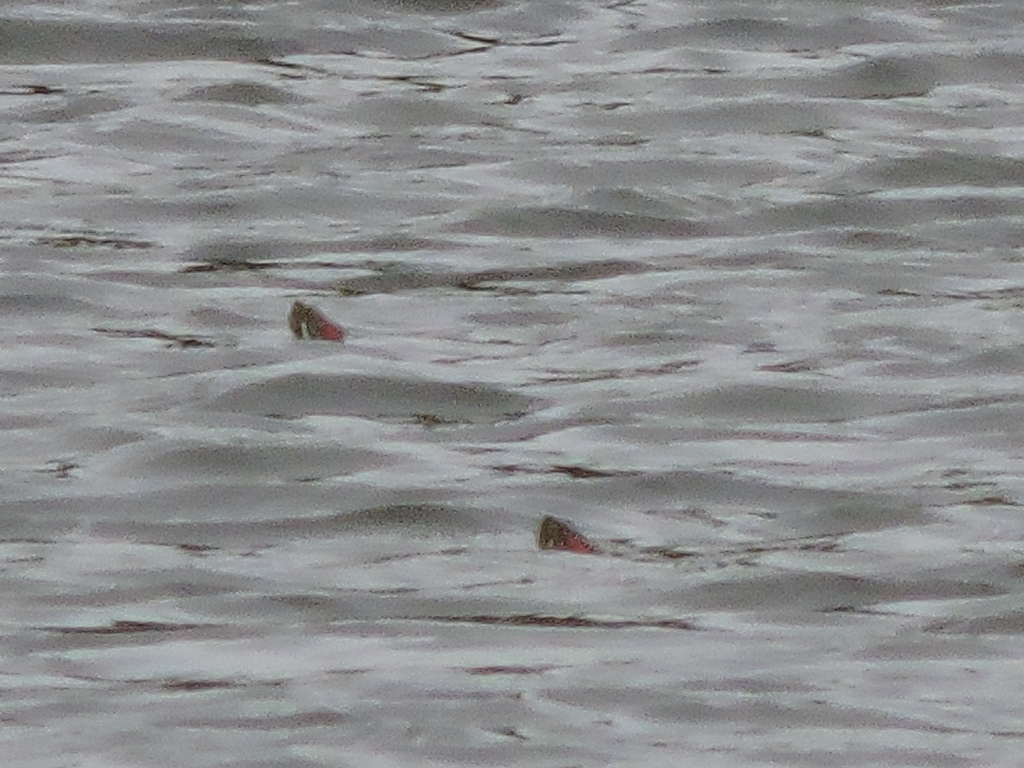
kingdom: Animalia
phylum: Chordata
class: Testudines
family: Emydidae
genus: Trachemys
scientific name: Trachemys scripta
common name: Slider
